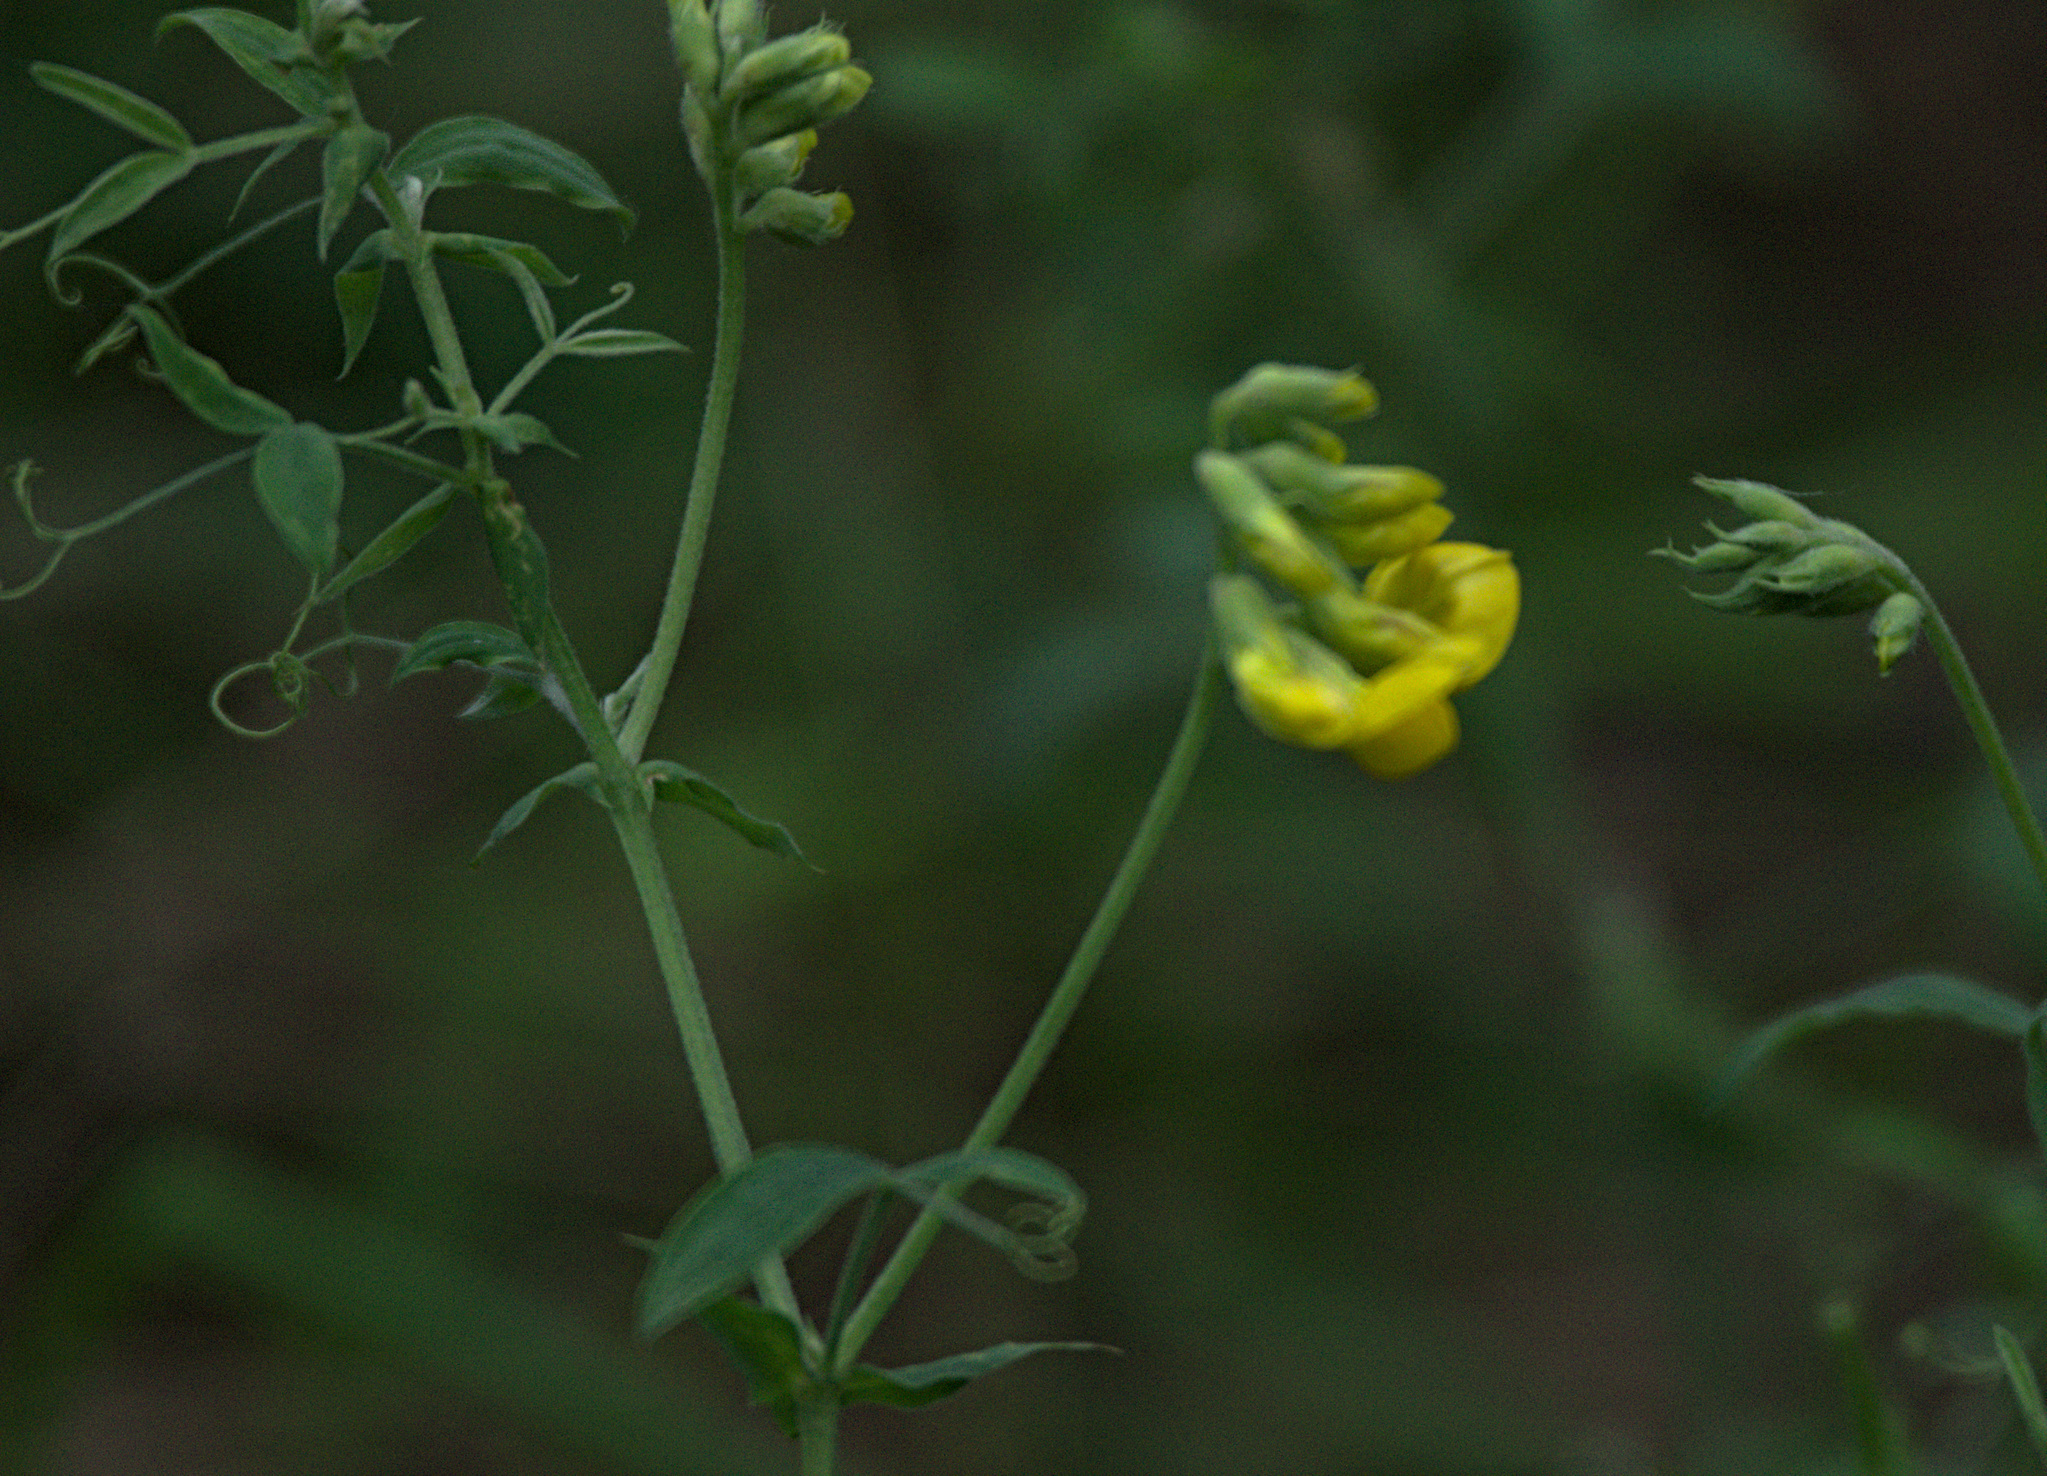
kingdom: Plantae
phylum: Tracheophyta
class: Magnoliopsida
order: Fabales
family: Fabaceae
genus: Lathyrus
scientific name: Lathyrus pratensis
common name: Meadow vetchling
